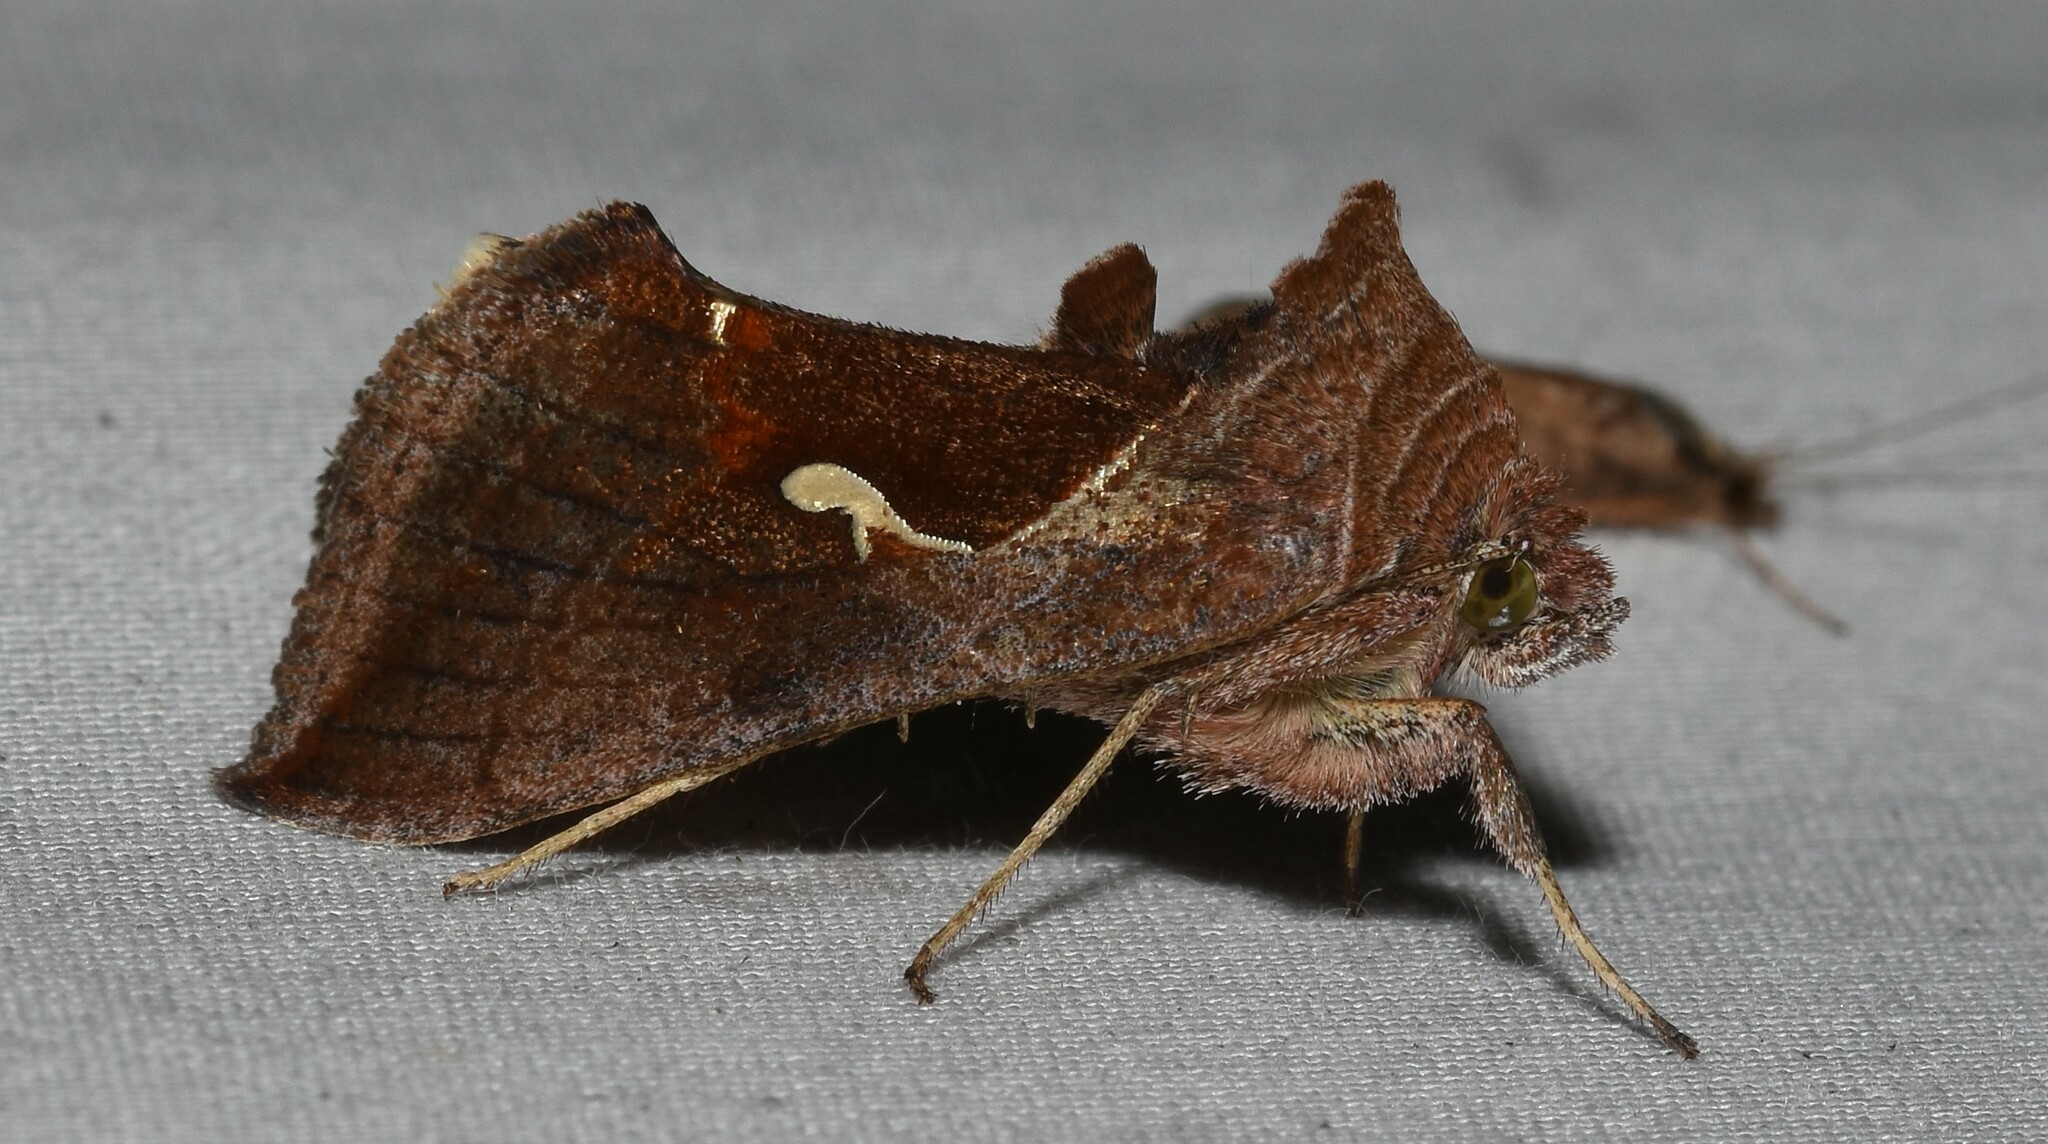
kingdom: Animalia
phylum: Arthropoda
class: Insecta
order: Lepidoptera
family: Noctuidae
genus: Anagrapha
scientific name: Anagrapha falcifera
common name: Celery looper
